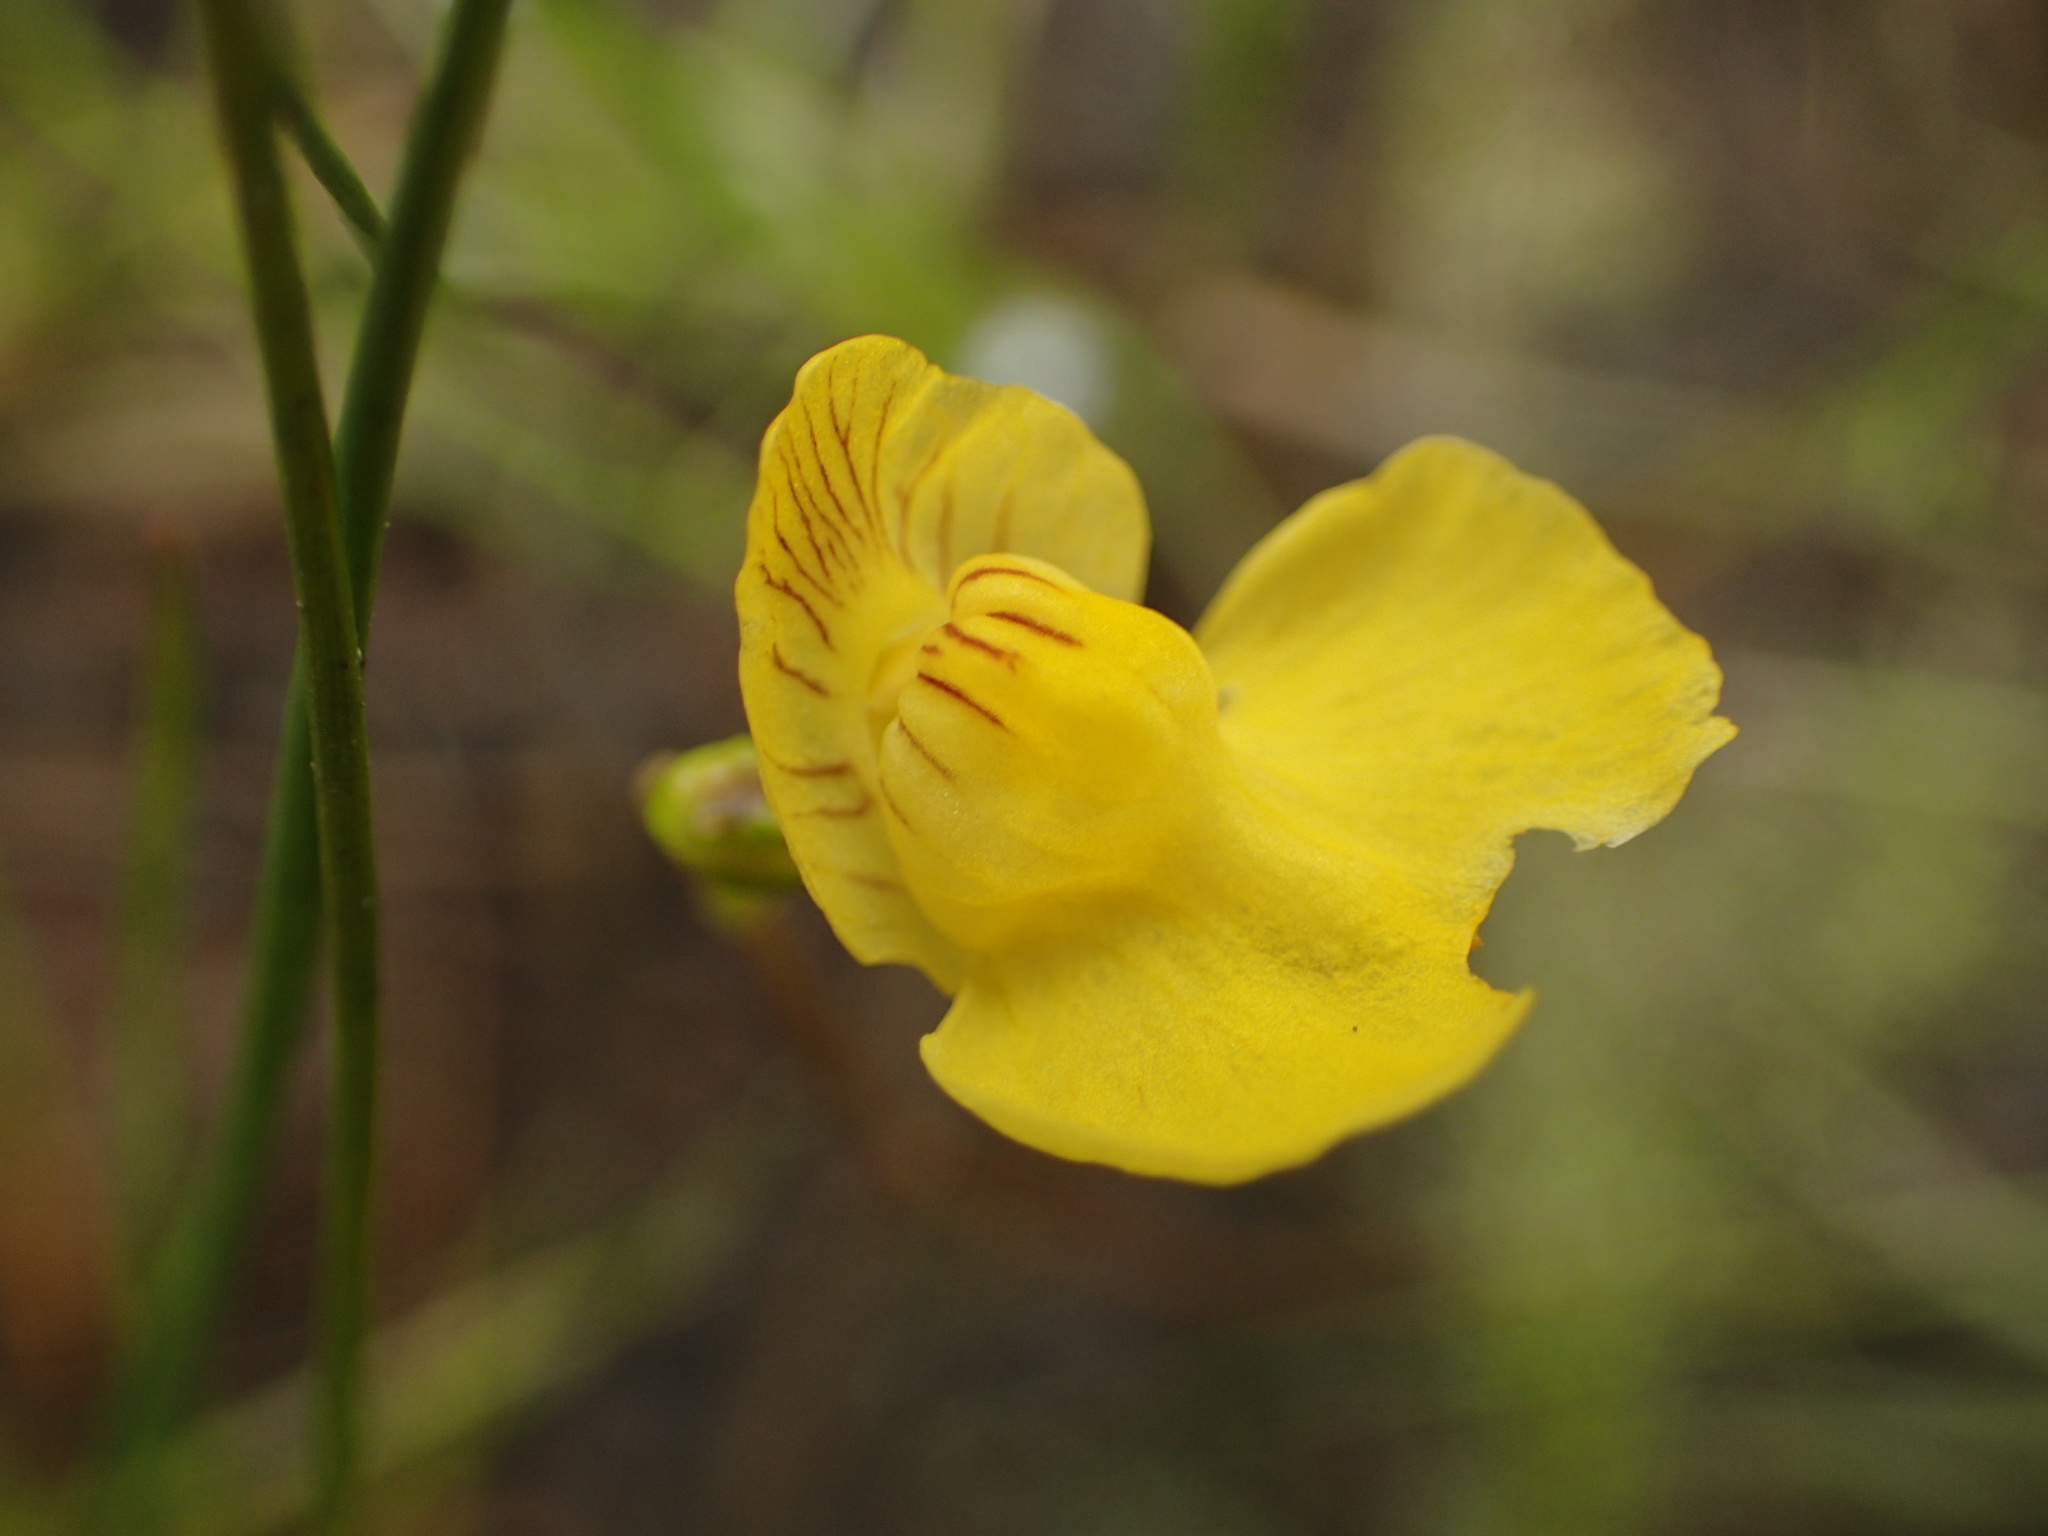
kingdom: Plantae
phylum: Tracheophyta
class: Magnoliopsida
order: Lamiales
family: Lentibulariaceae
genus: Utricularia
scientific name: Utricularia intermedia
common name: Intermediate bladderwort
